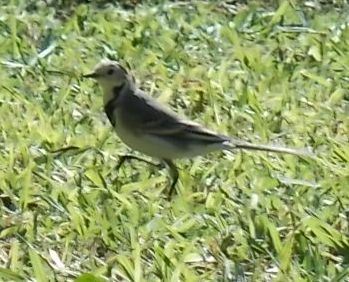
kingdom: Animalia
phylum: Chordata
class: Aves
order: Passeriformes
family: Motacillidae
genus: Motacilla
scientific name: Motacilla alba
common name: White wagtail
